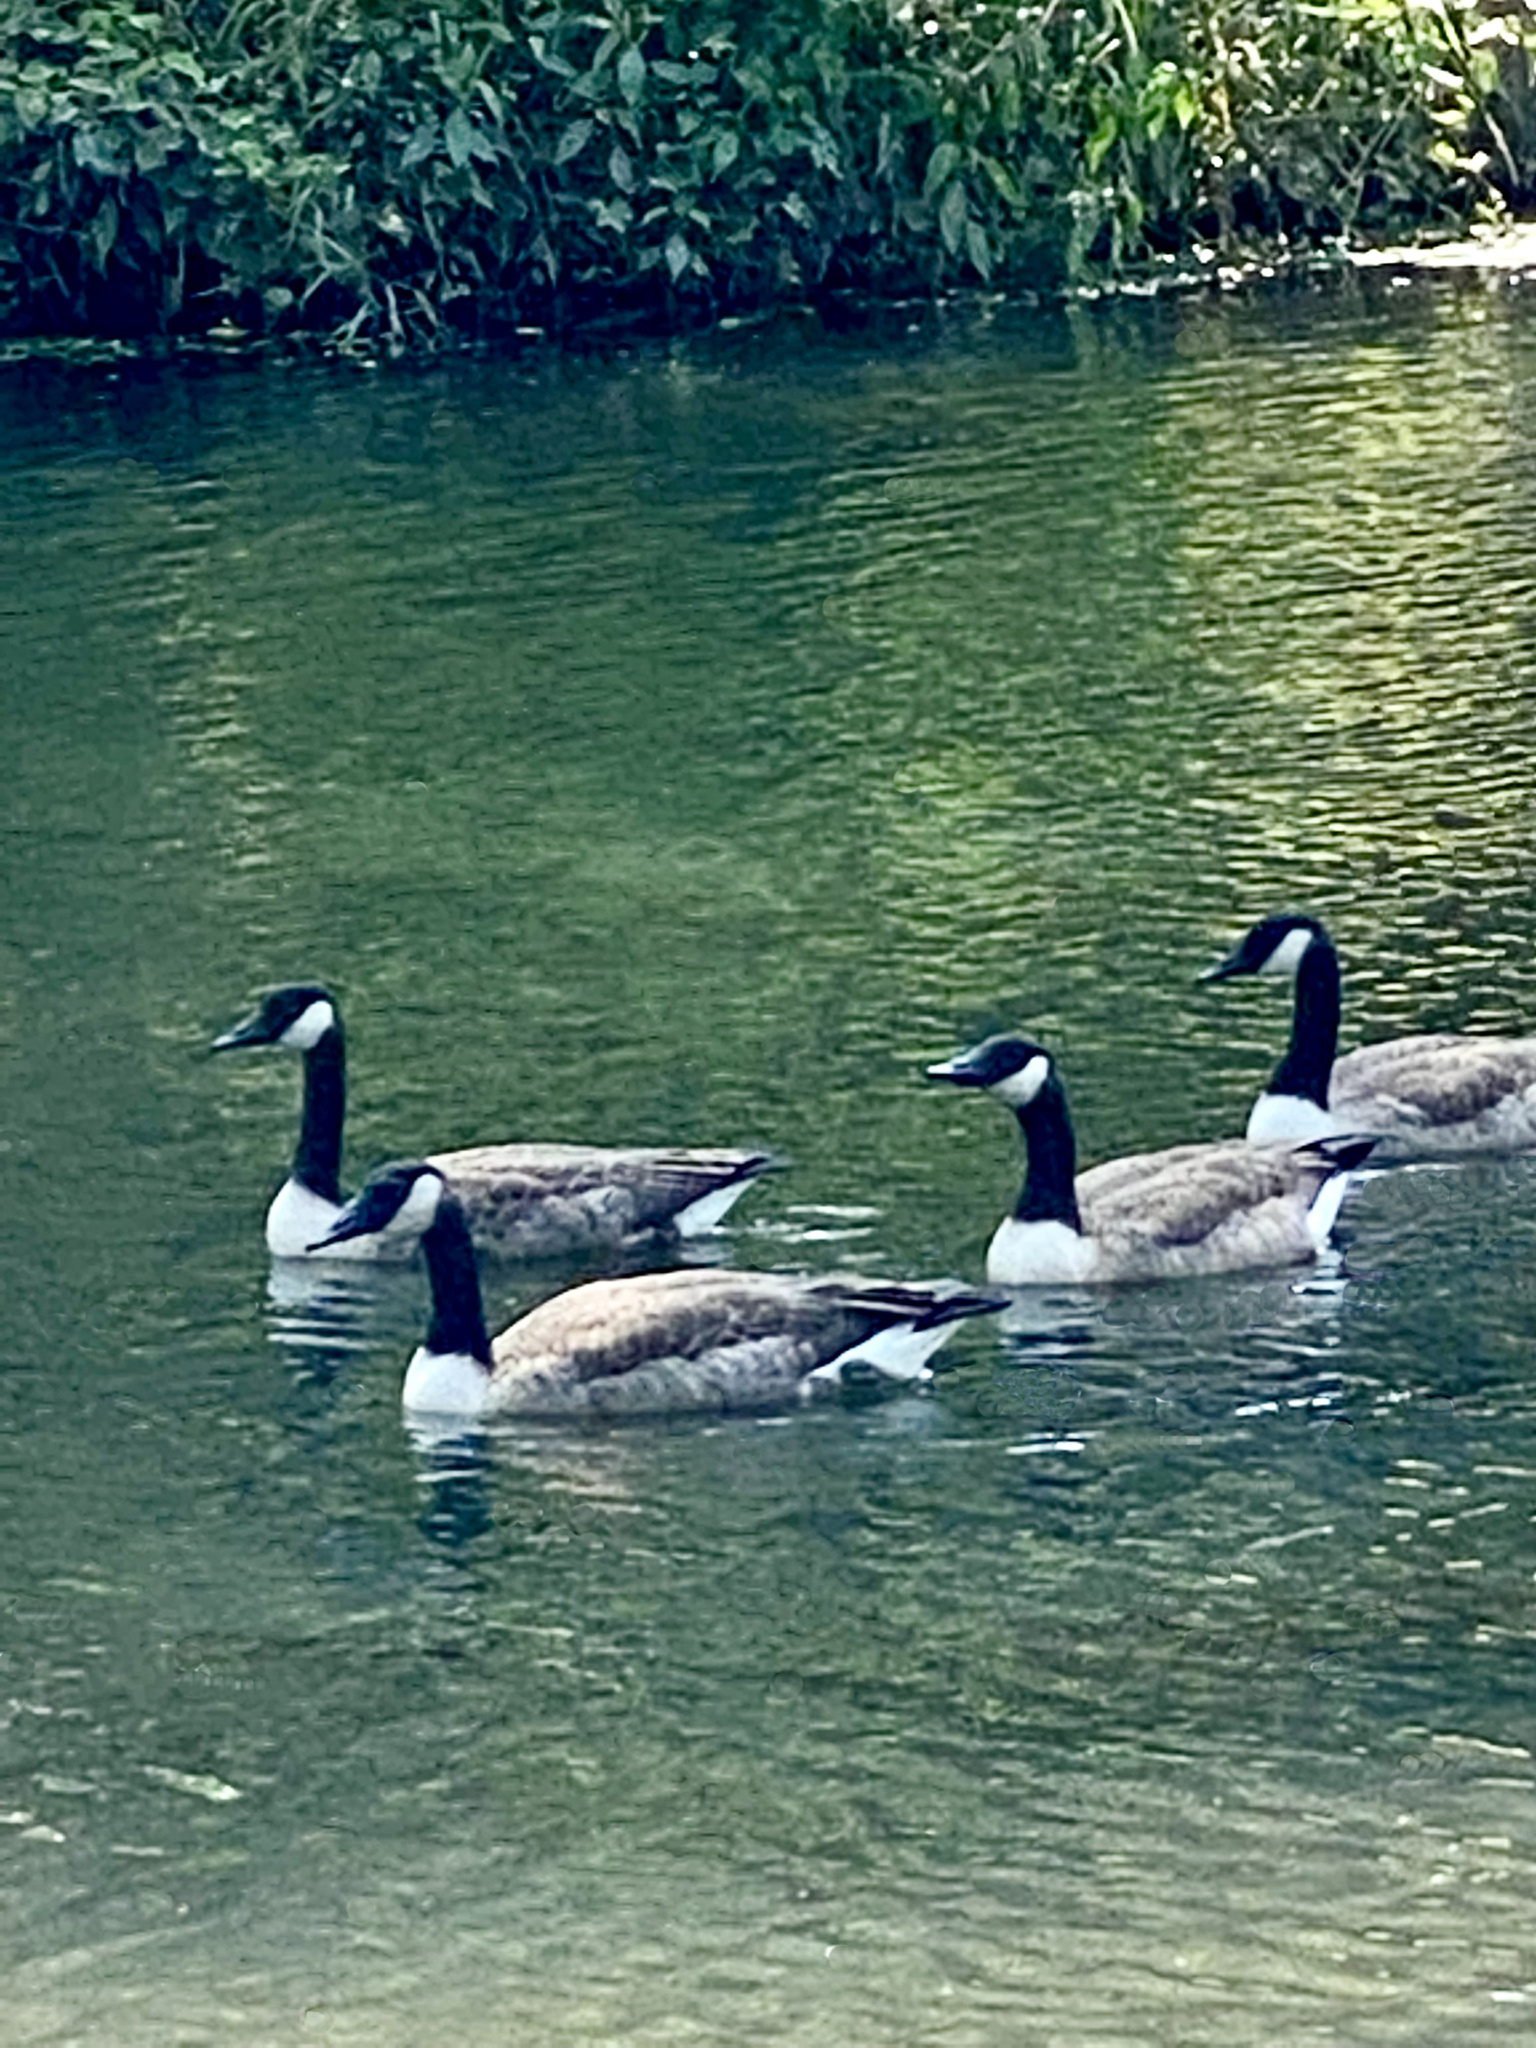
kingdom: Animalia
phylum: Chordata
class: Aves
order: Anseriformes
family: Anatidae
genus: Branta
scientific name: Branta canadensis
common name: Canada goose
